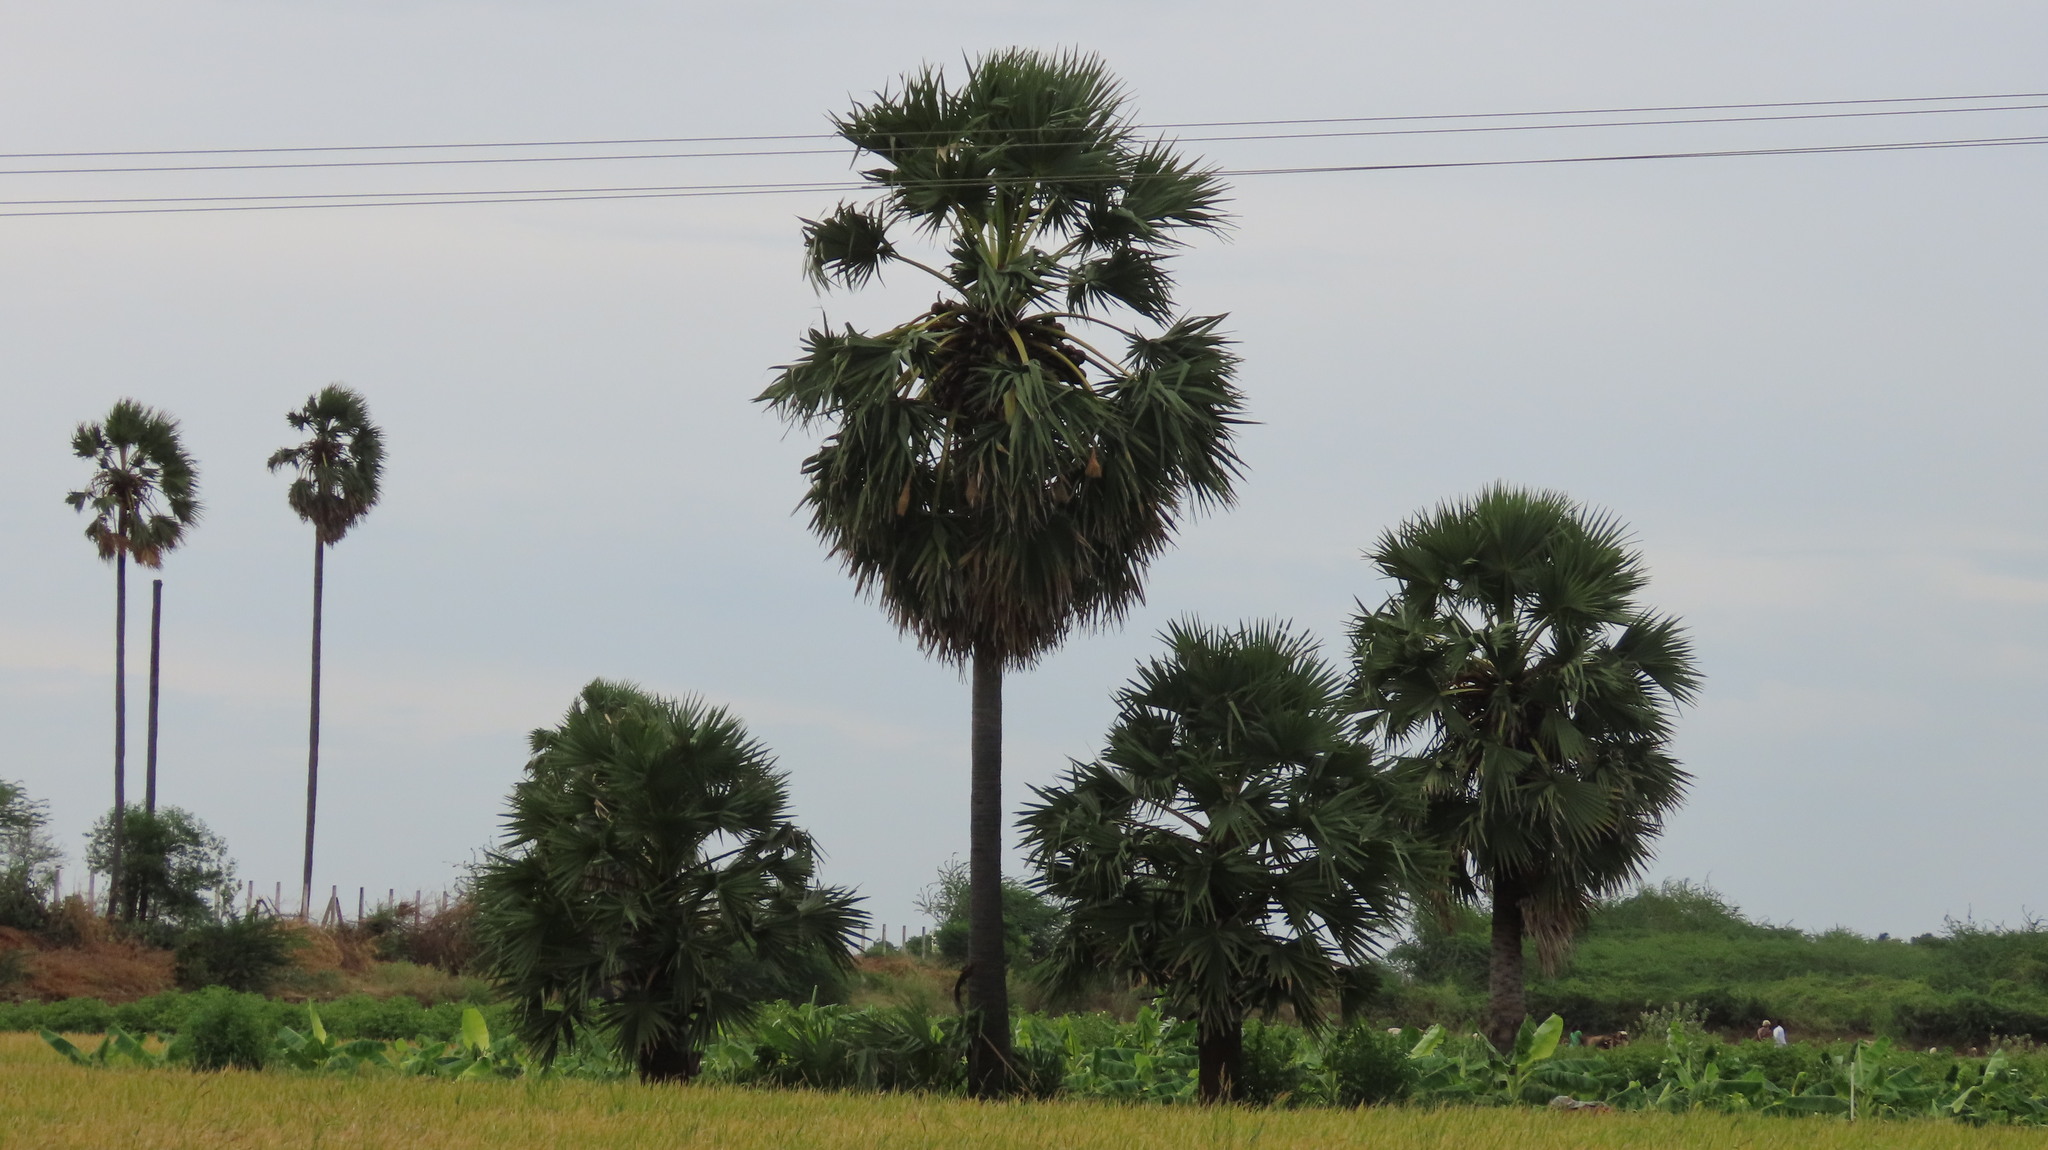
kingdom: Plantae
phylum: Tracheophyta
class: Liliopsida
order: Arecales
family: Arecaceae
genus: Borassus
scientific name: Borassus flabellifer
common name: Palmyra palm
